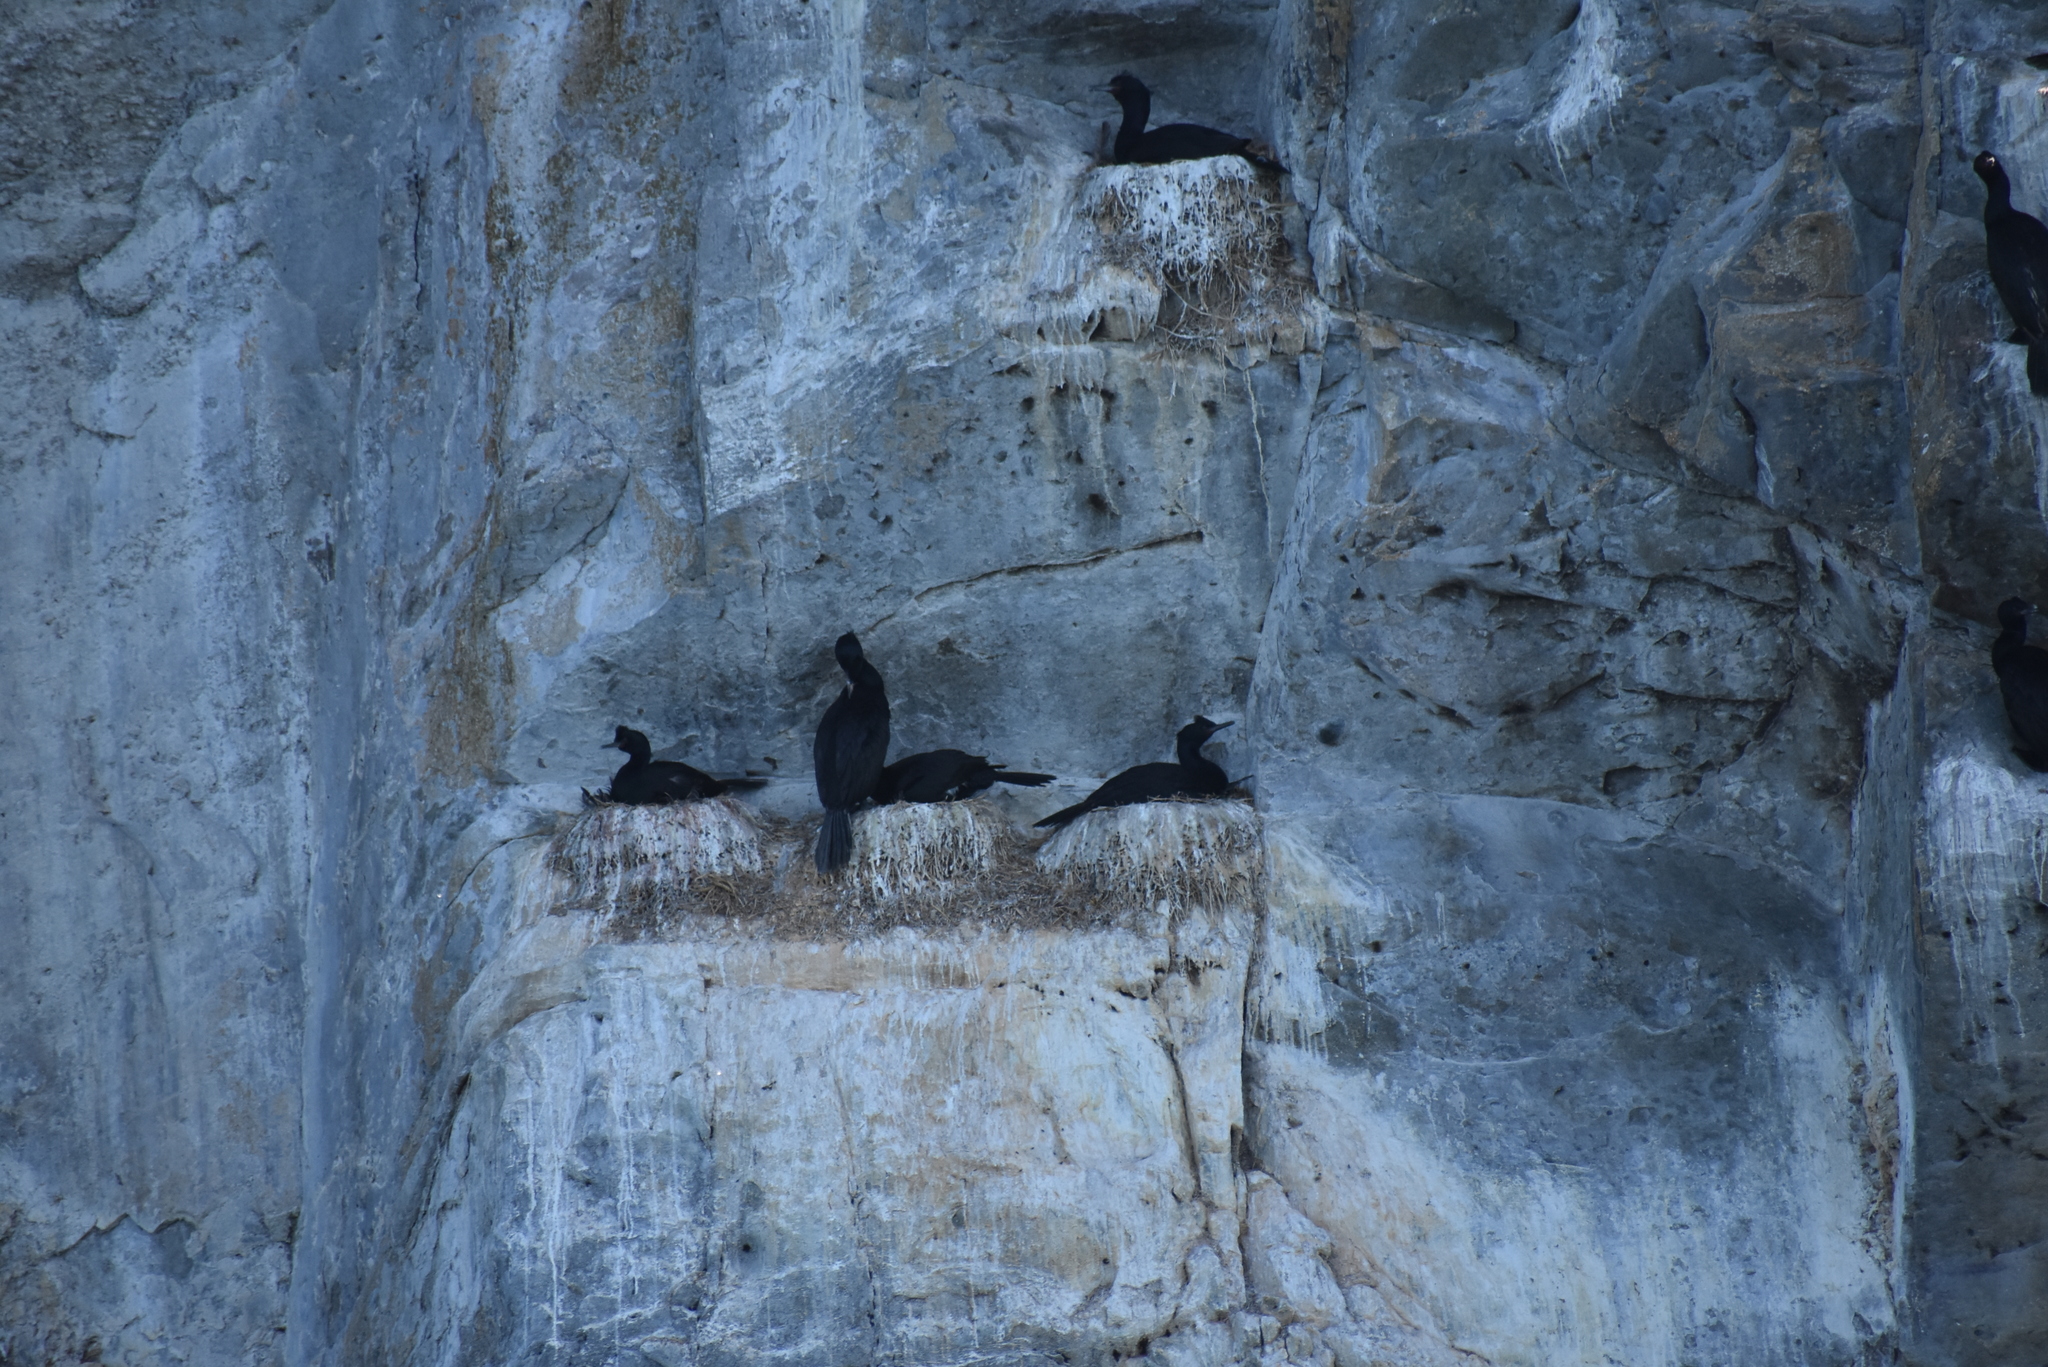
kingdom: Animalia
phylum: Chordata
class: Aves
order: Suliformes
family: Phalacrocoracidae
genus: Phalacrocorax
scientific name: Phalacrocorax pelagicus
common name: Pelagic cormorant
